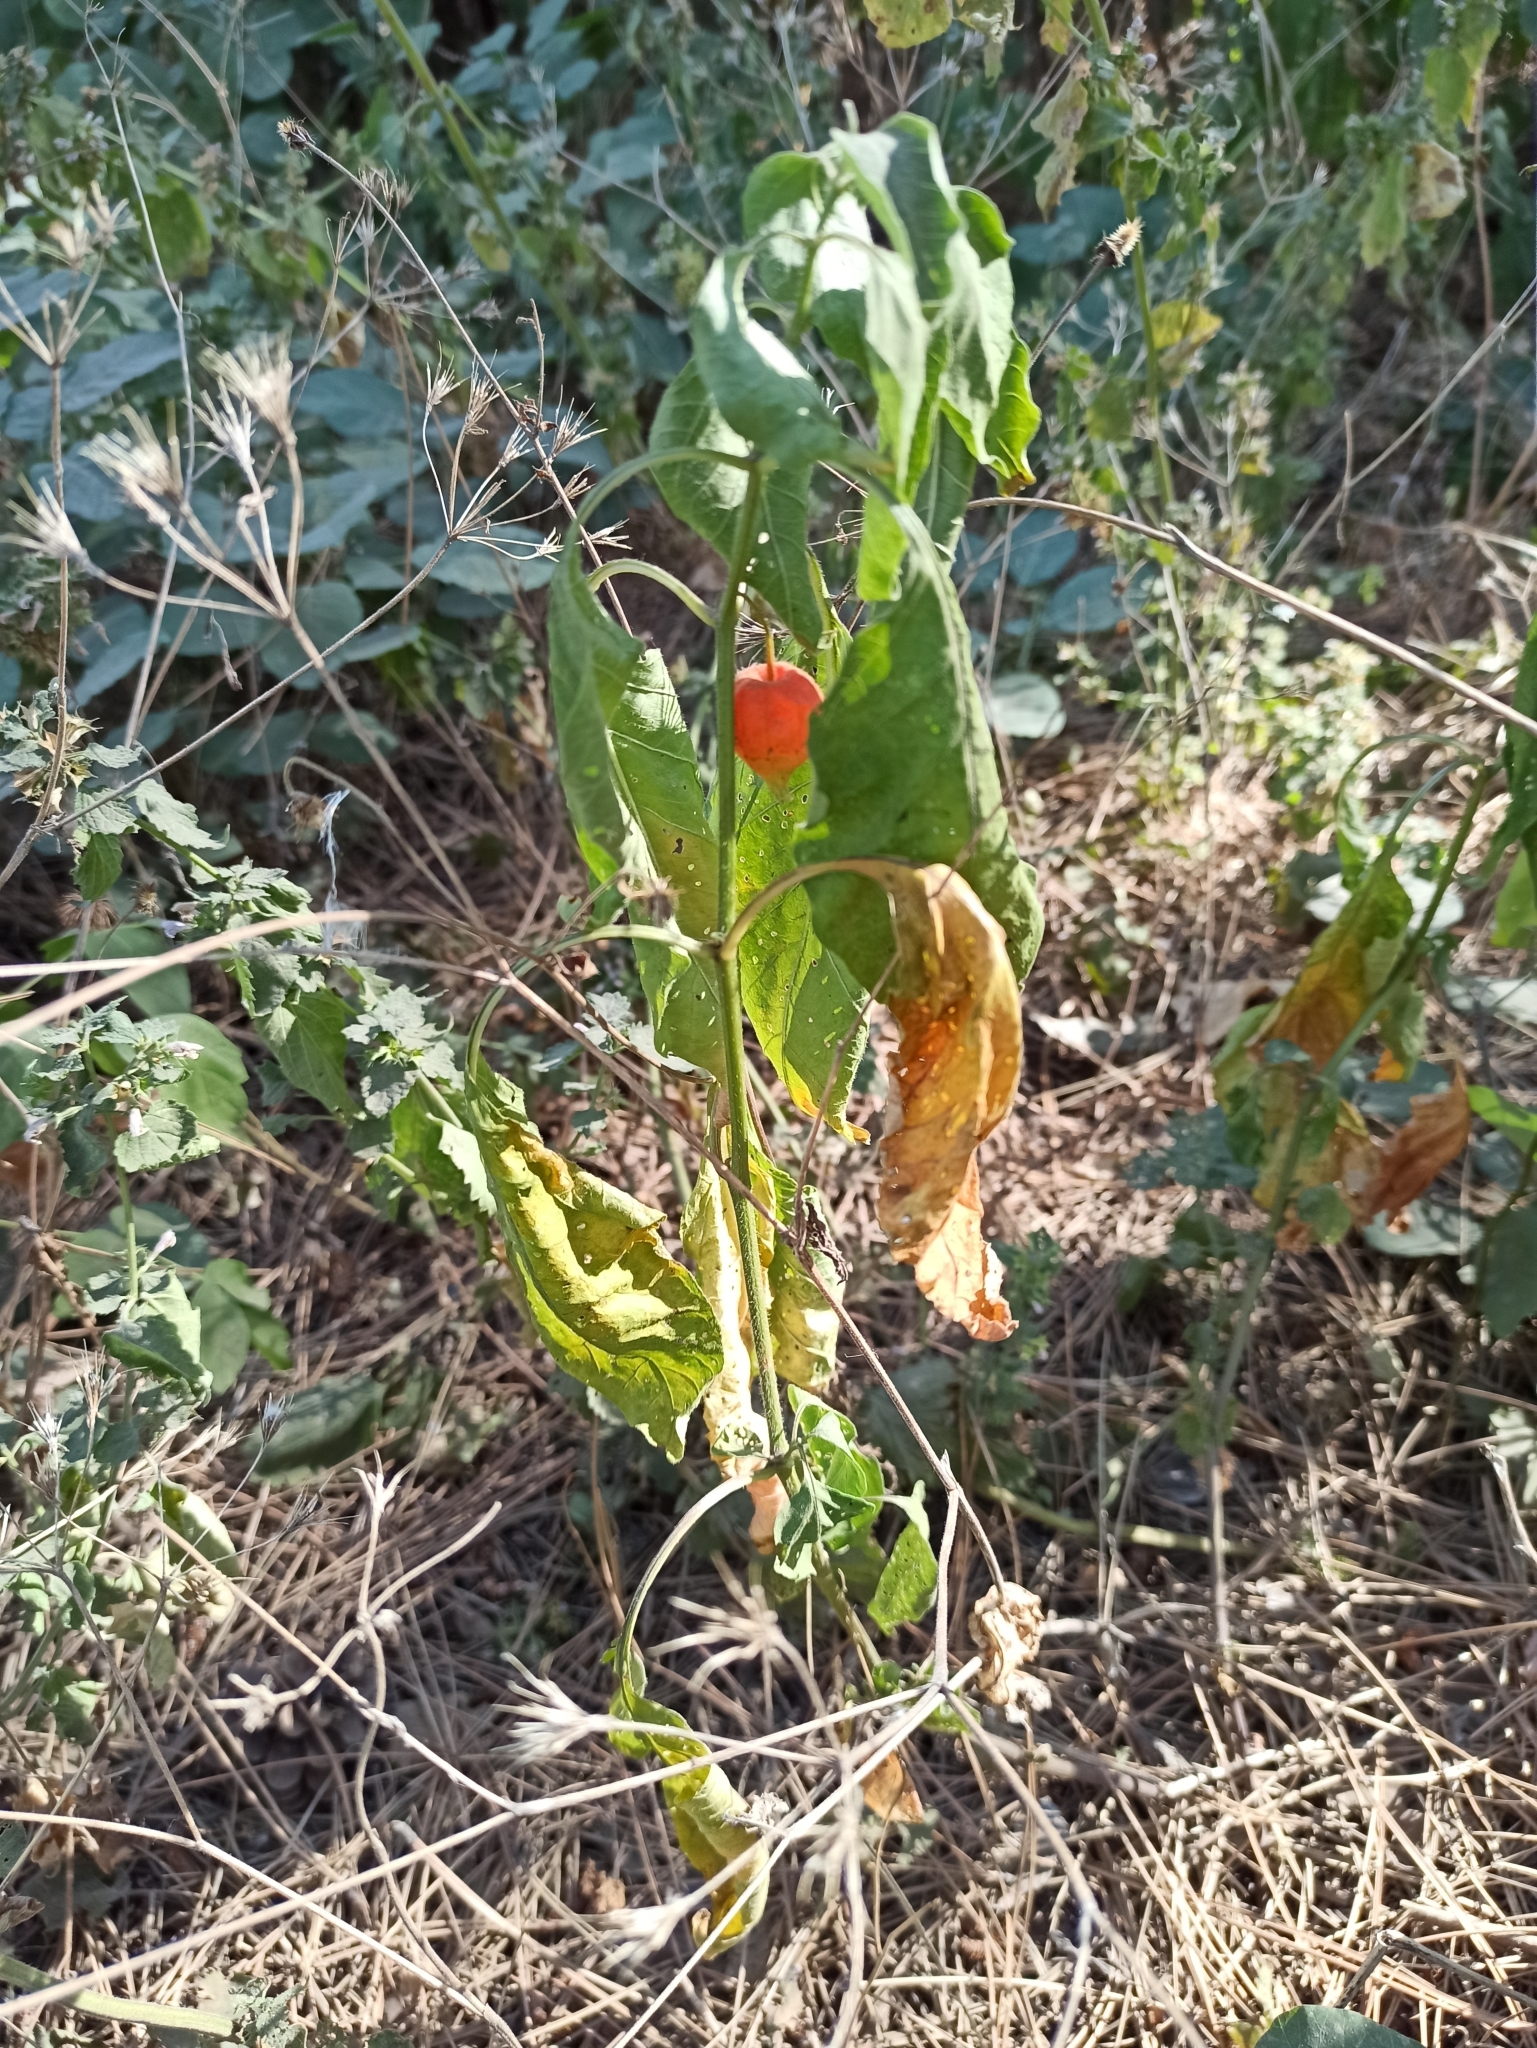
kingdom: Plantae
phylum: Tracheophyta
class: Magnoliopsida
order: Solanales
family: Solanaceae
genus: Alkekengi
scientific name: Alkekengi officinarum
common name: Japanese-lantern
